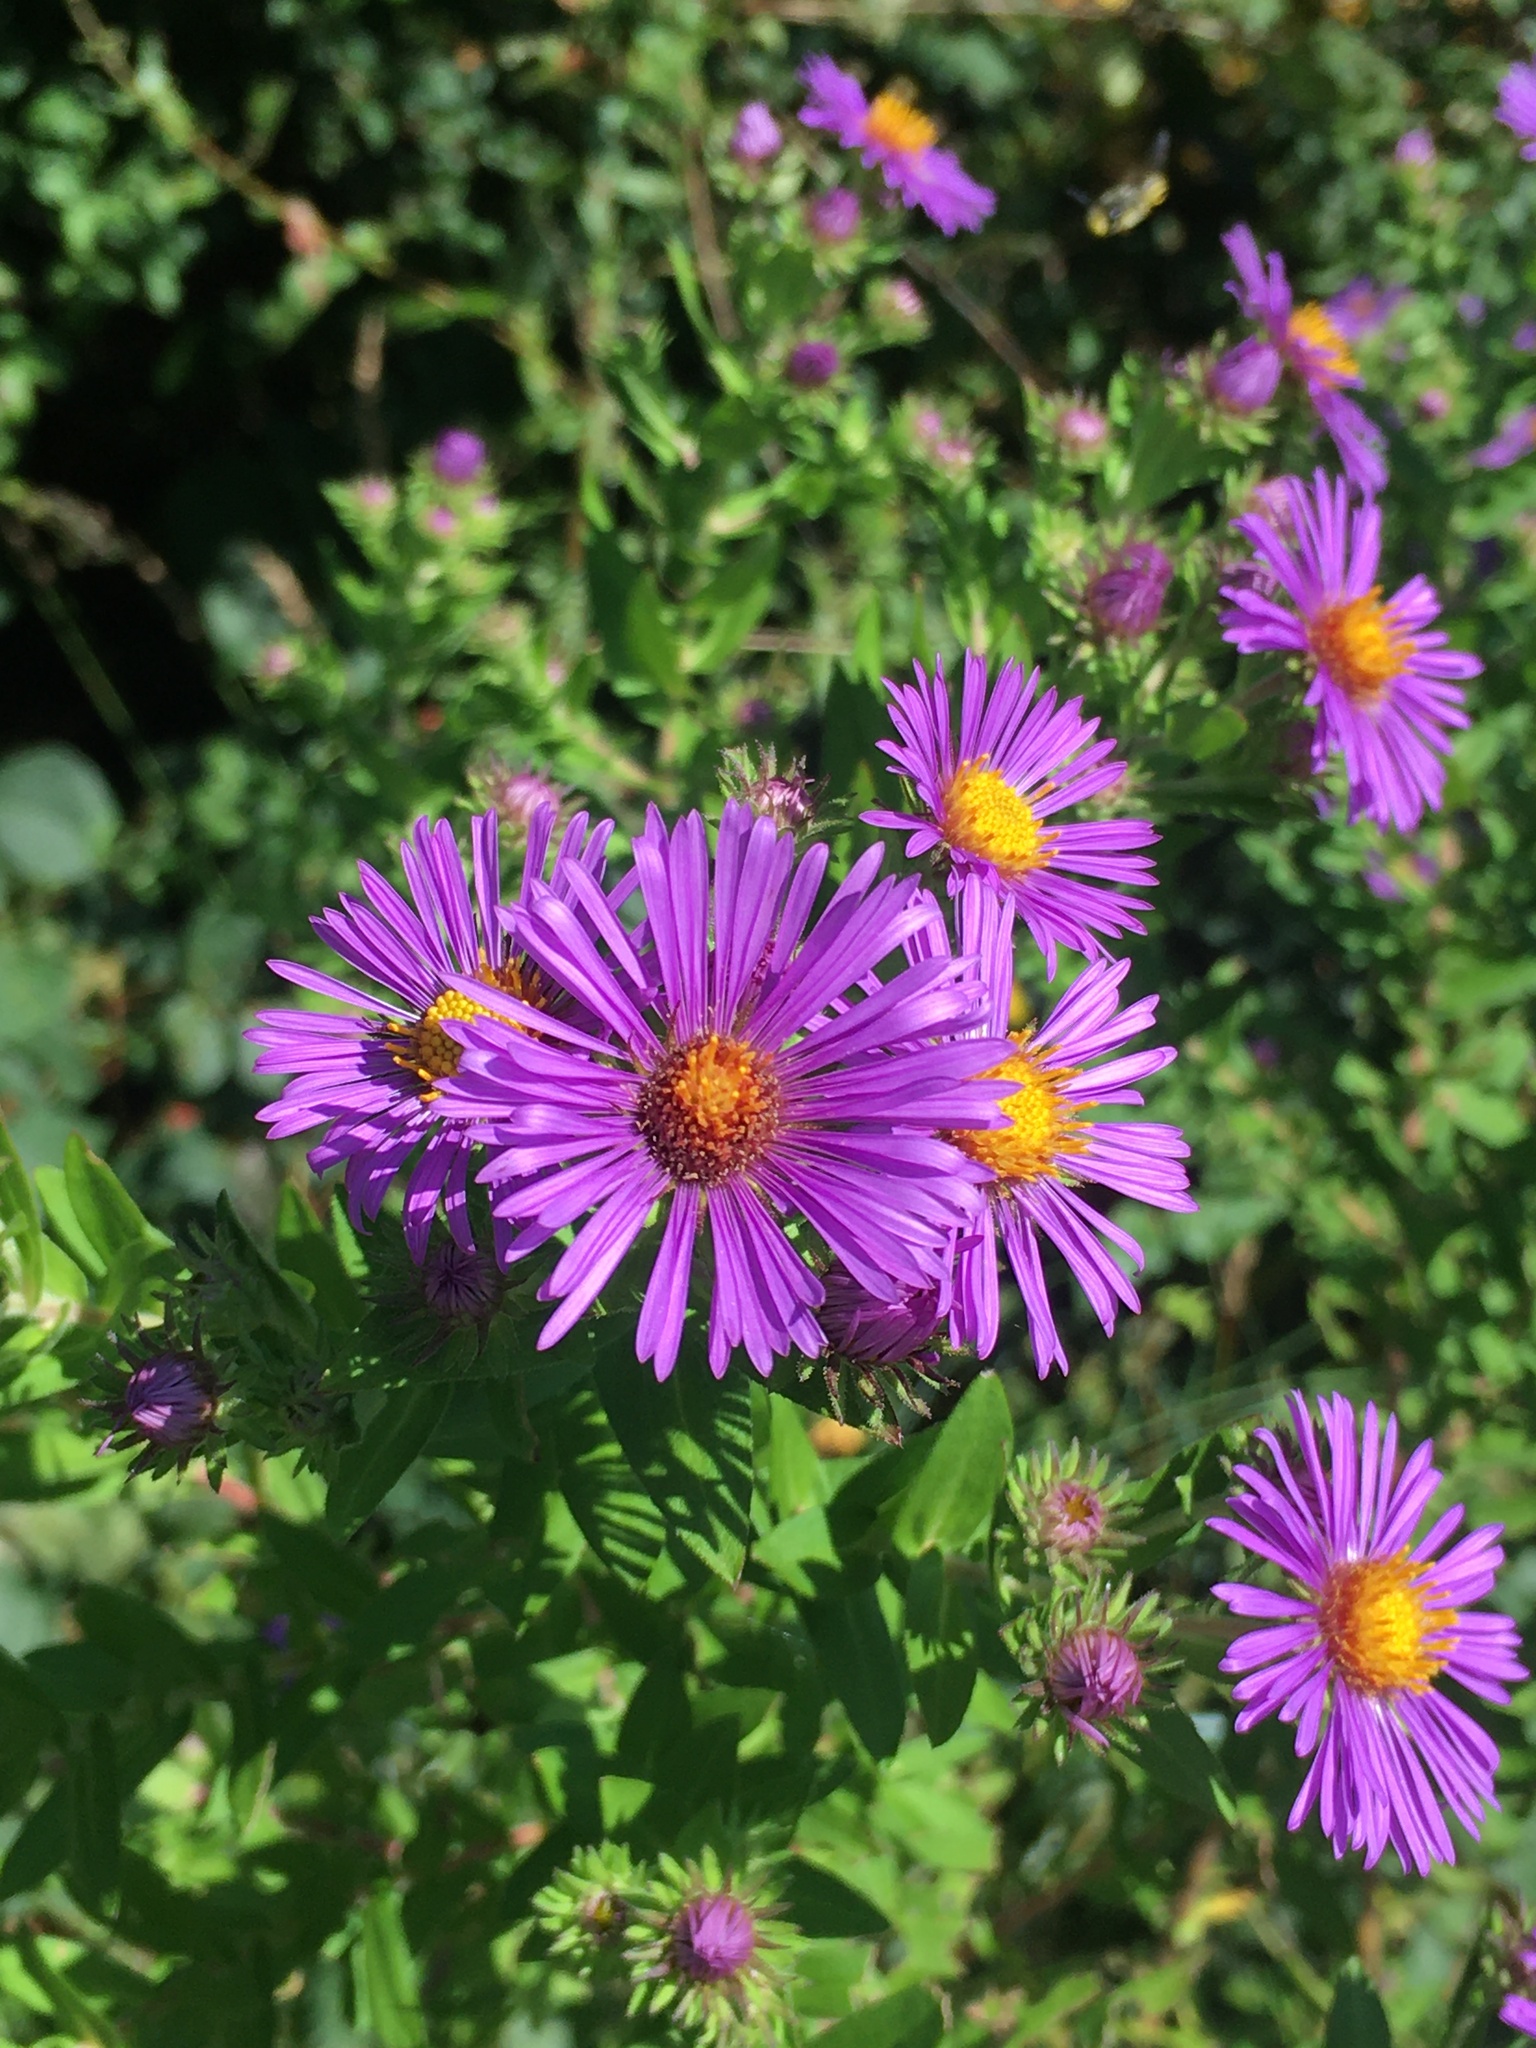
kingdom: Plantae
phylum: Tracheophyta
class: Magnoliopsida
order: Asterales
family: Asteraceae
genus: Symphyotrichum
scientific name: Symphyotrichum novae-angliae
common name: Michaelmas daisy
